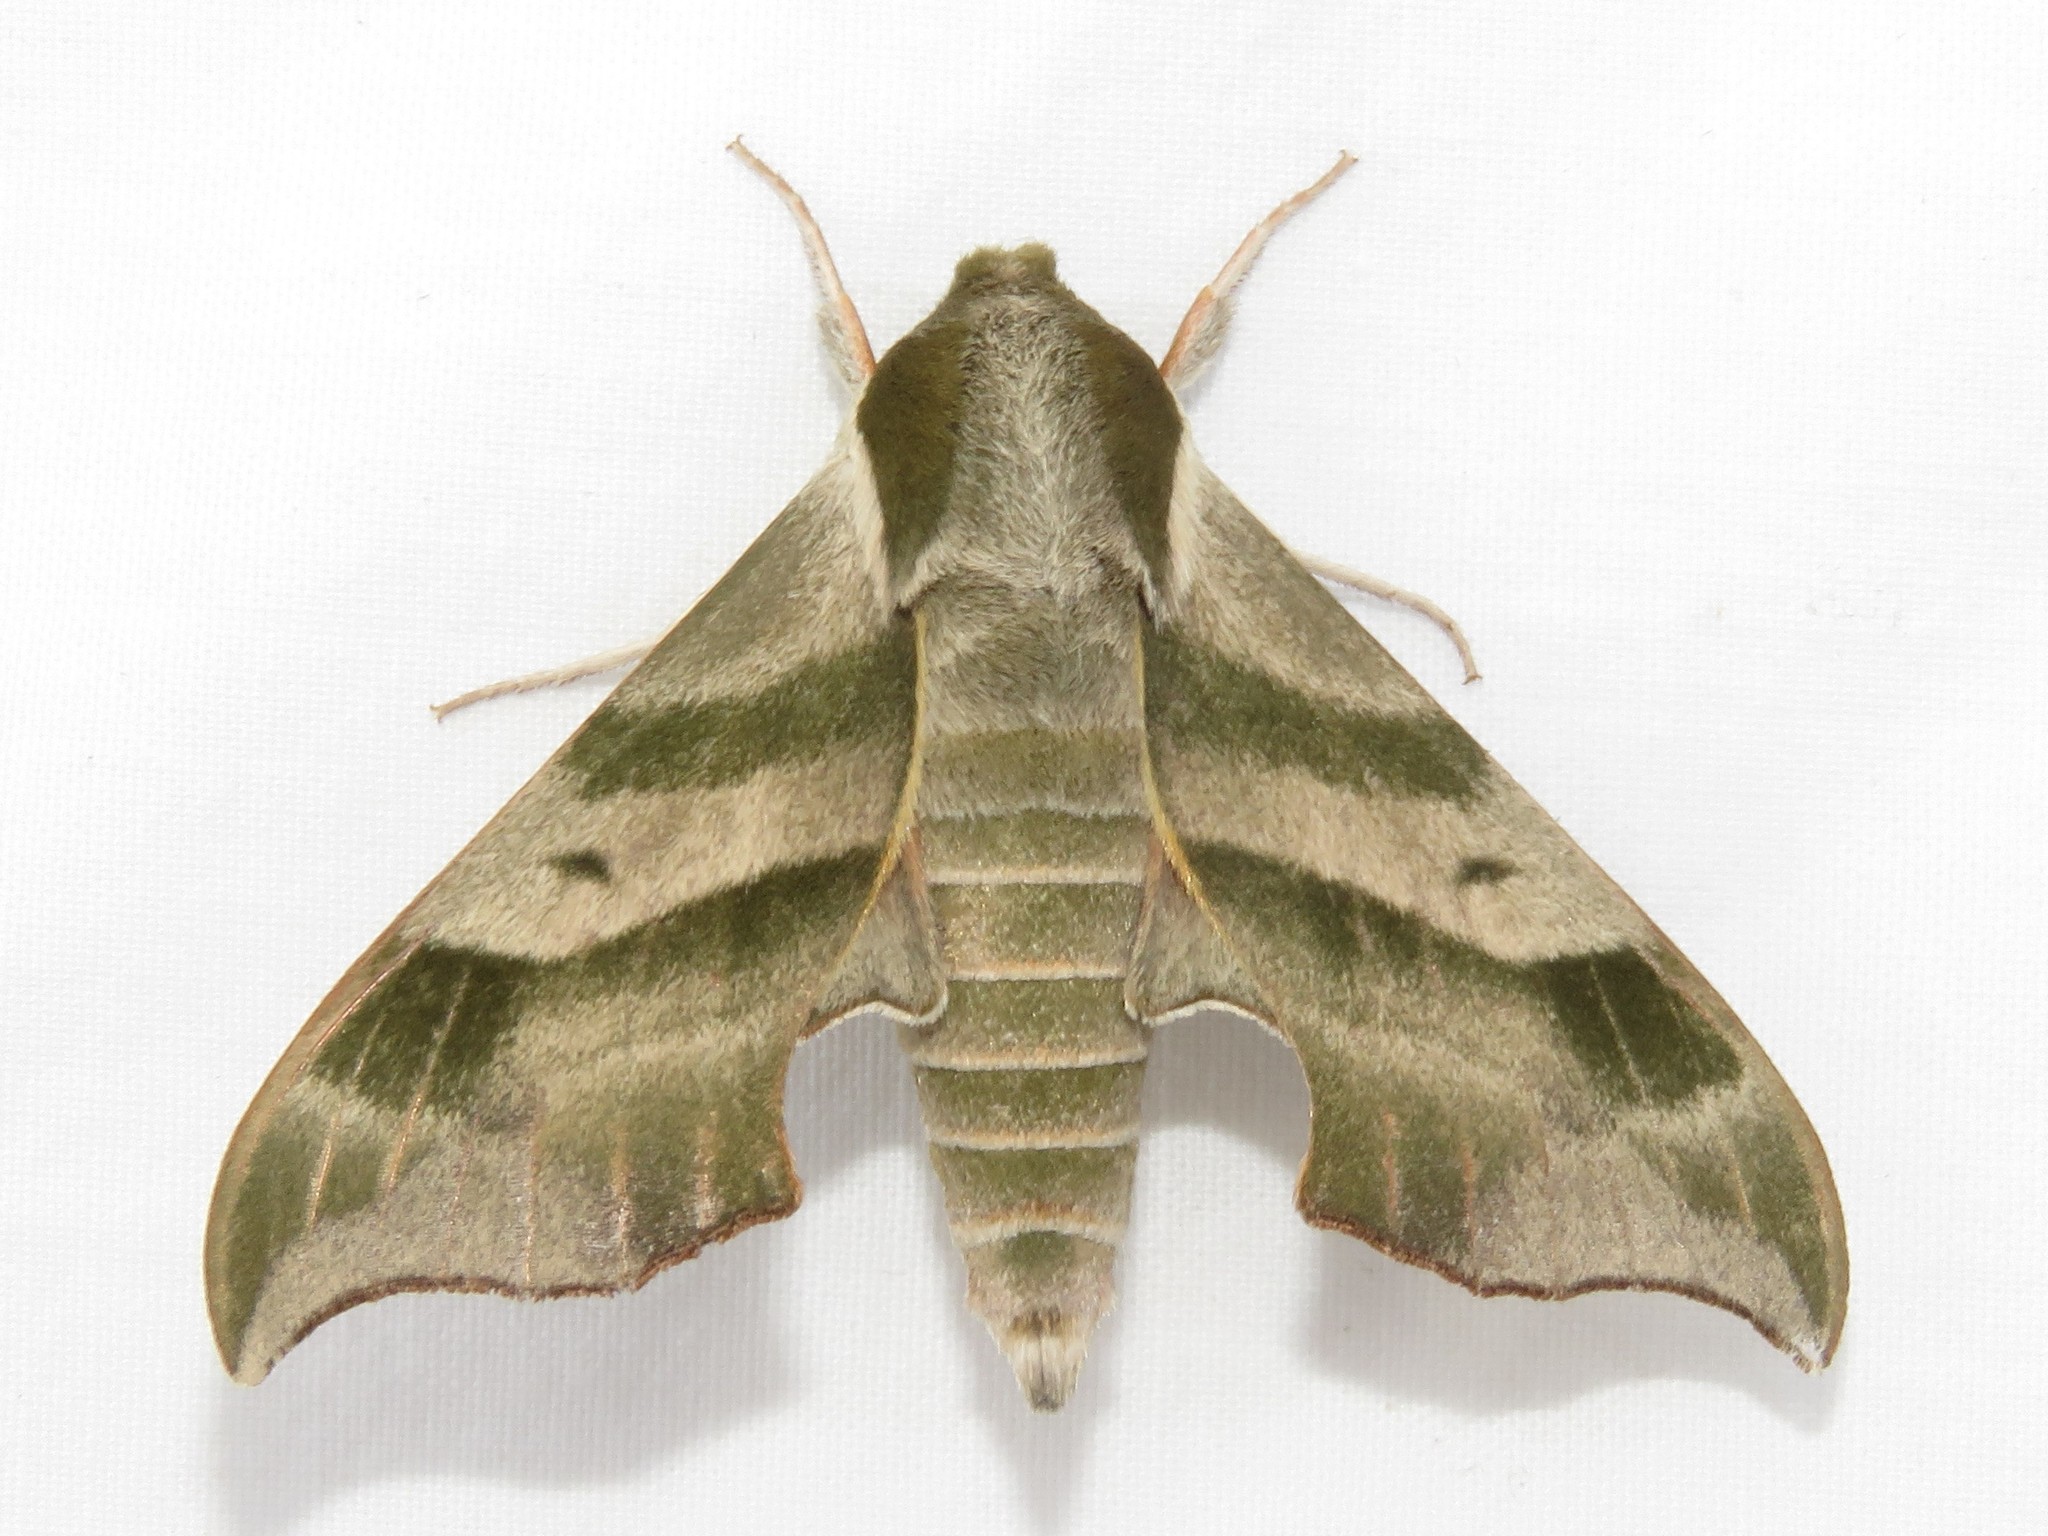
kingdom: Animalia
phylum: Arthropoda
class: Insecta
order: Lepidoptera
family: Sphingidae
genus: Darapsa
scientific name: Darapsa myron
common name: Hog sphinx
